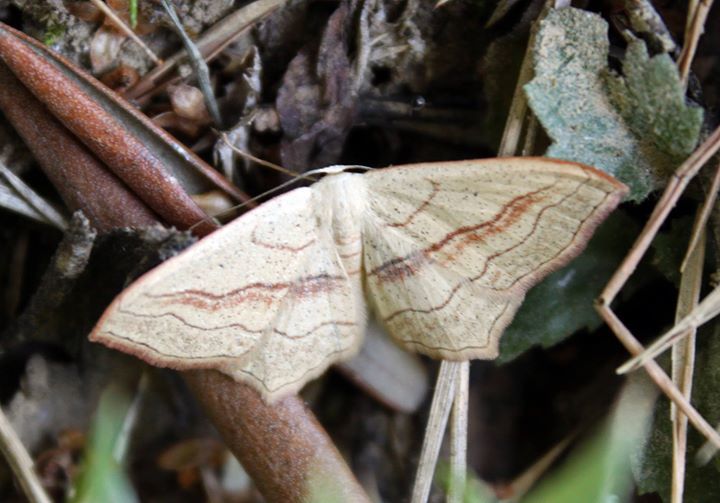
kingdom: Animalia
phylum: Arthropoda
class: Insecta
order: Lepidoptera
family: Geometridae
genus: Scopula
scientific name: Scopula imitaria
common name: Small blood-vein
